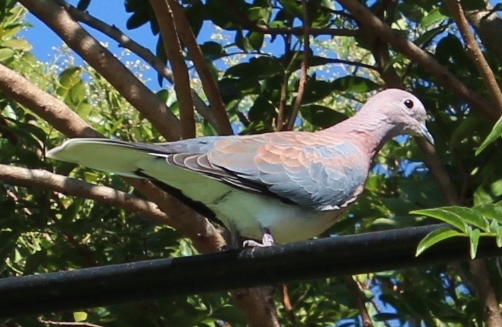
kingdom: Animalia
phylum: Chordata
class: Aves
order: Columbiformes
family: Columbidae
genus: Spilopelia
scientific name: Spilopelia senegalensis
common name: Laughing dove
